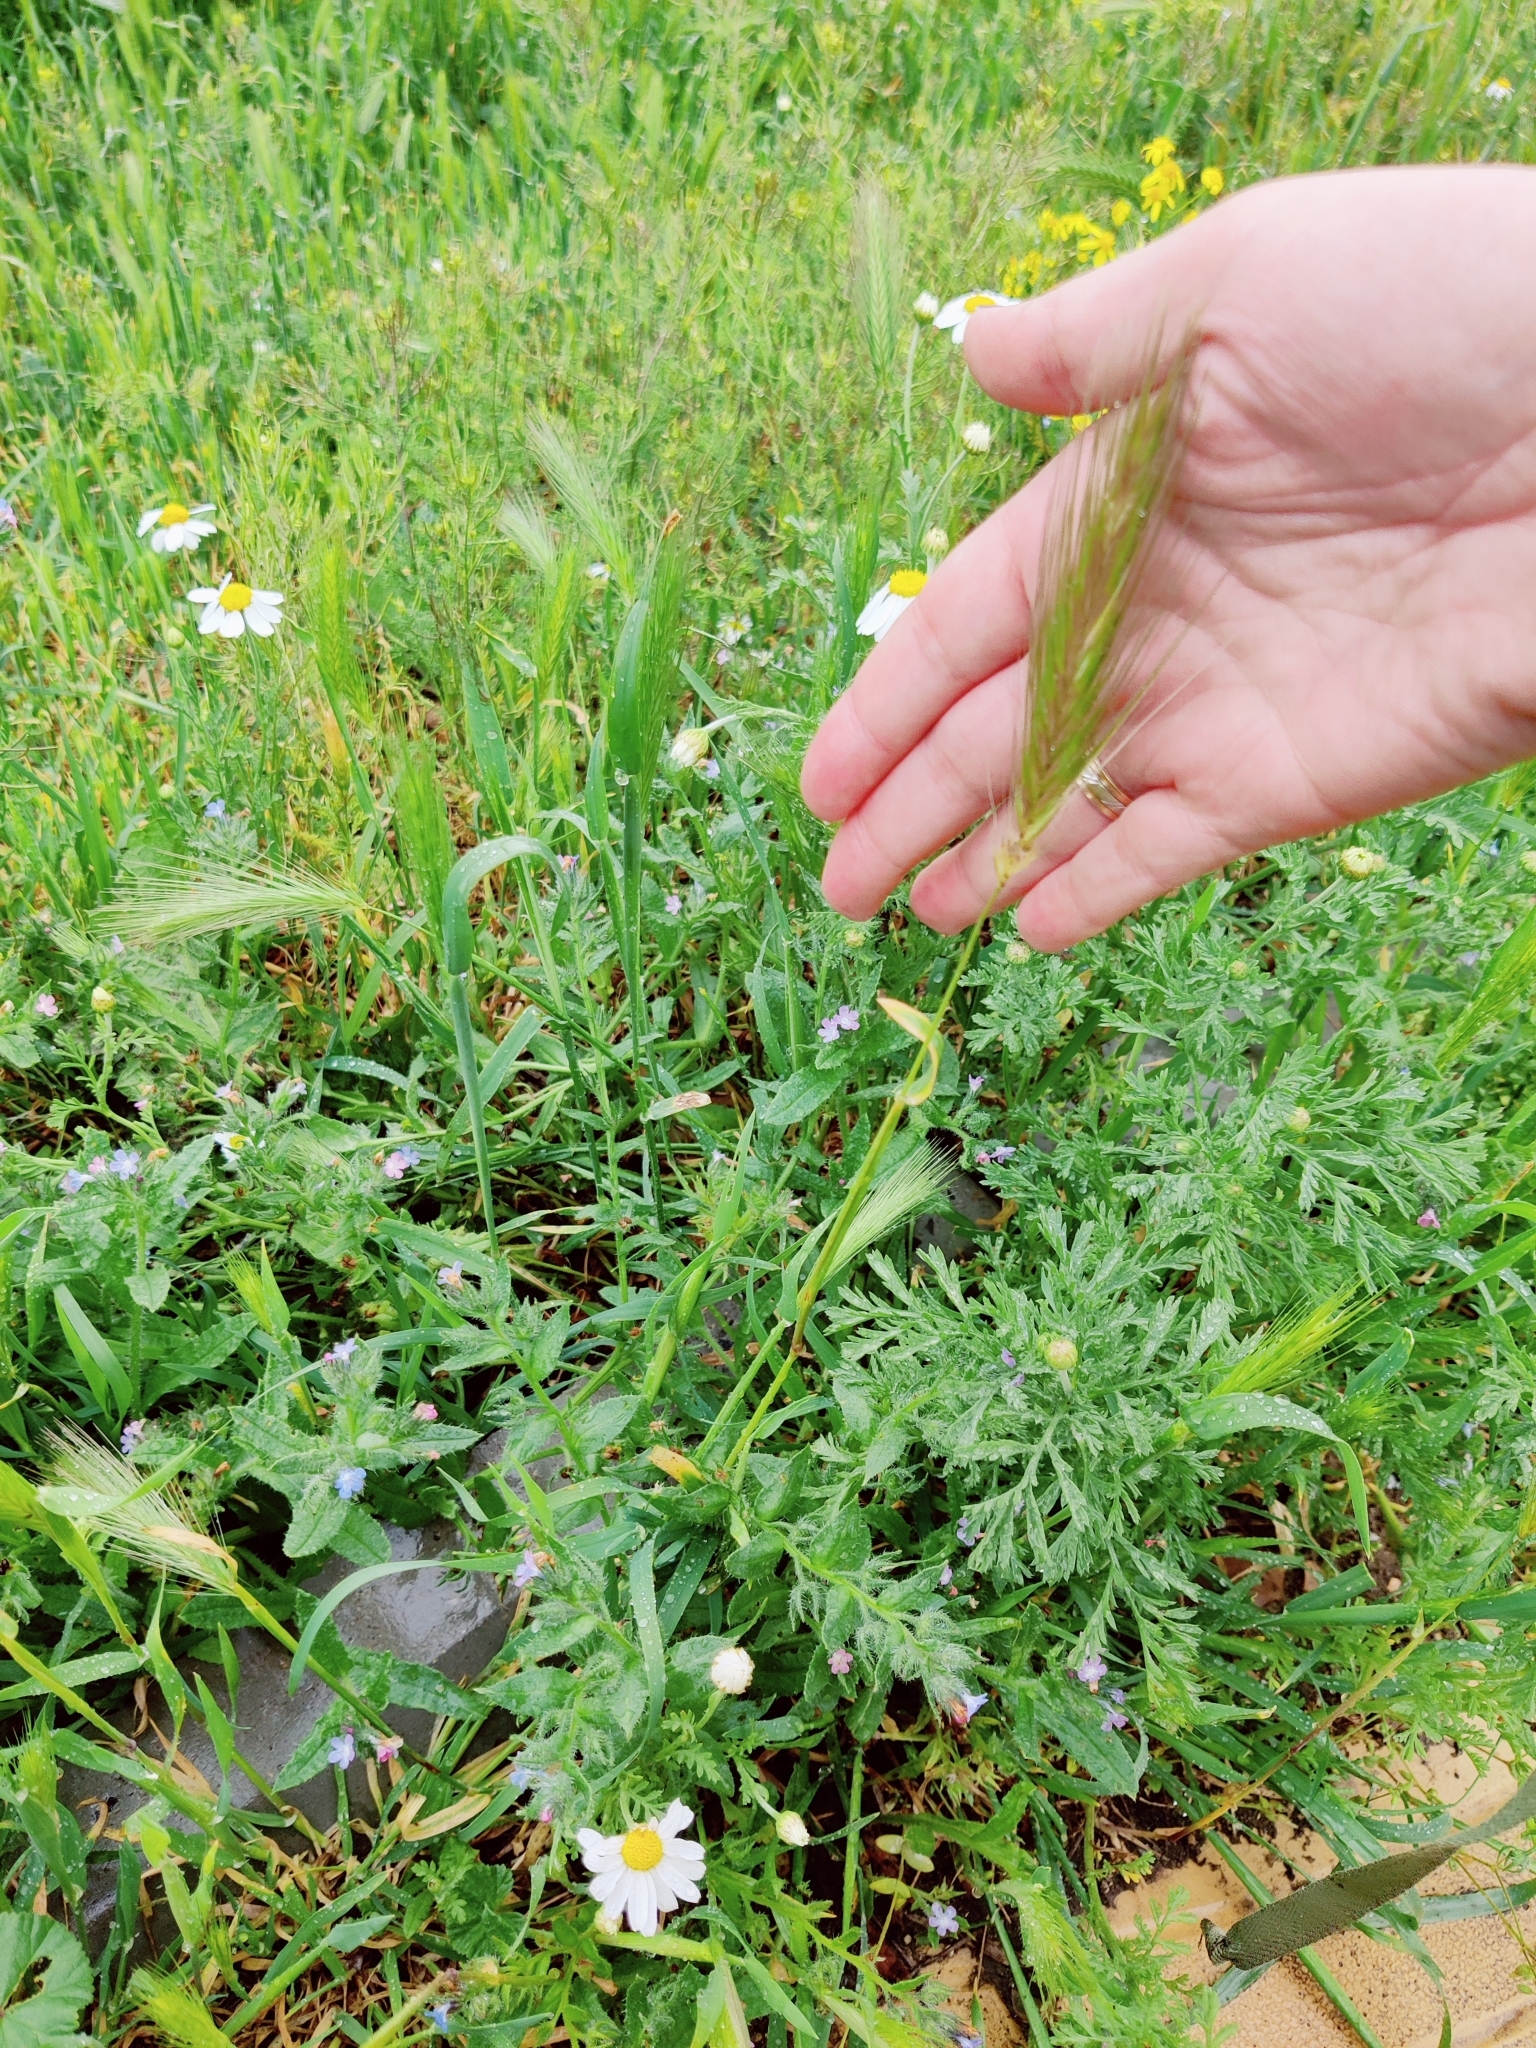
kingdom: Plantae
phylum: Tracheophyta
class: Liliopsida
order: Poales
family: Poaceae
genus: Hordeum
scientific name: Hordeum murinum
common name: Wall barley
